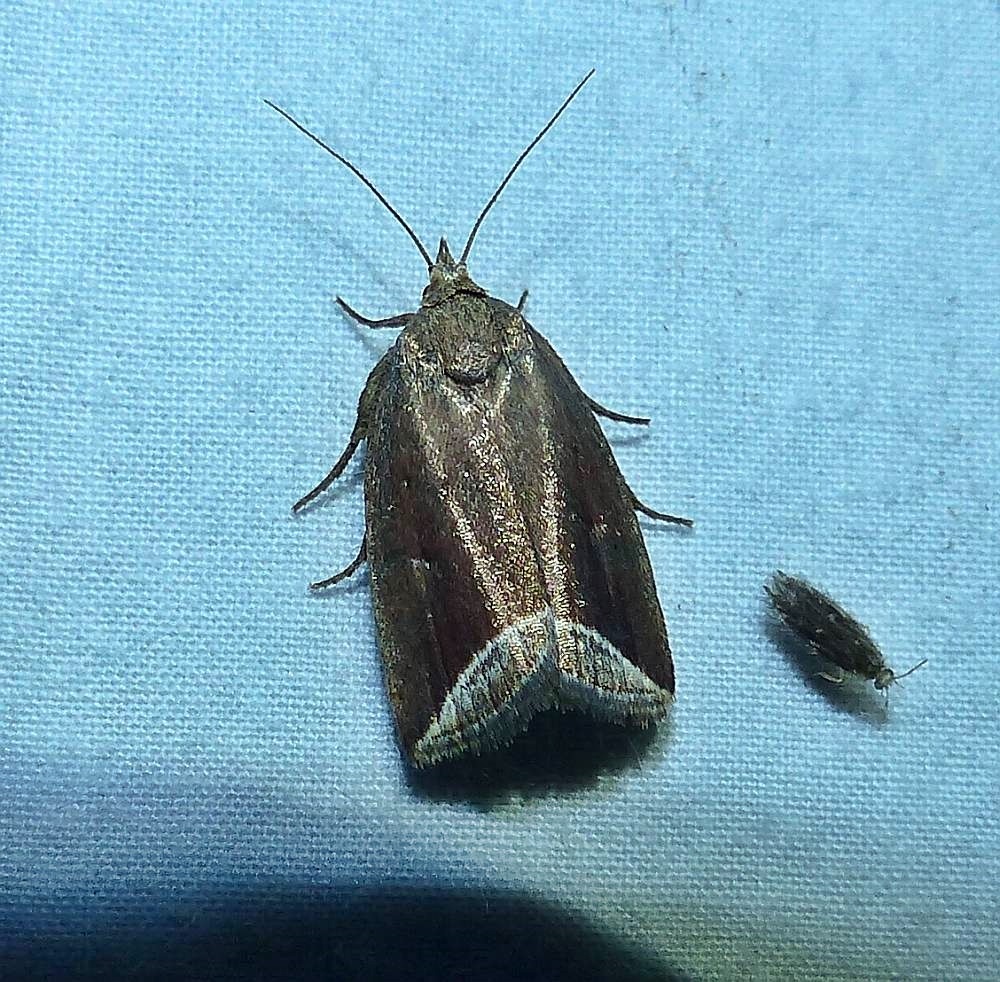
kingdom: Animalia
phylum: Arthropoda
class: Insecta
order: Lepidoptera
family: Erebidae
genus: Capis
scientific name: Capis curvata
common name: Curved halter moth
